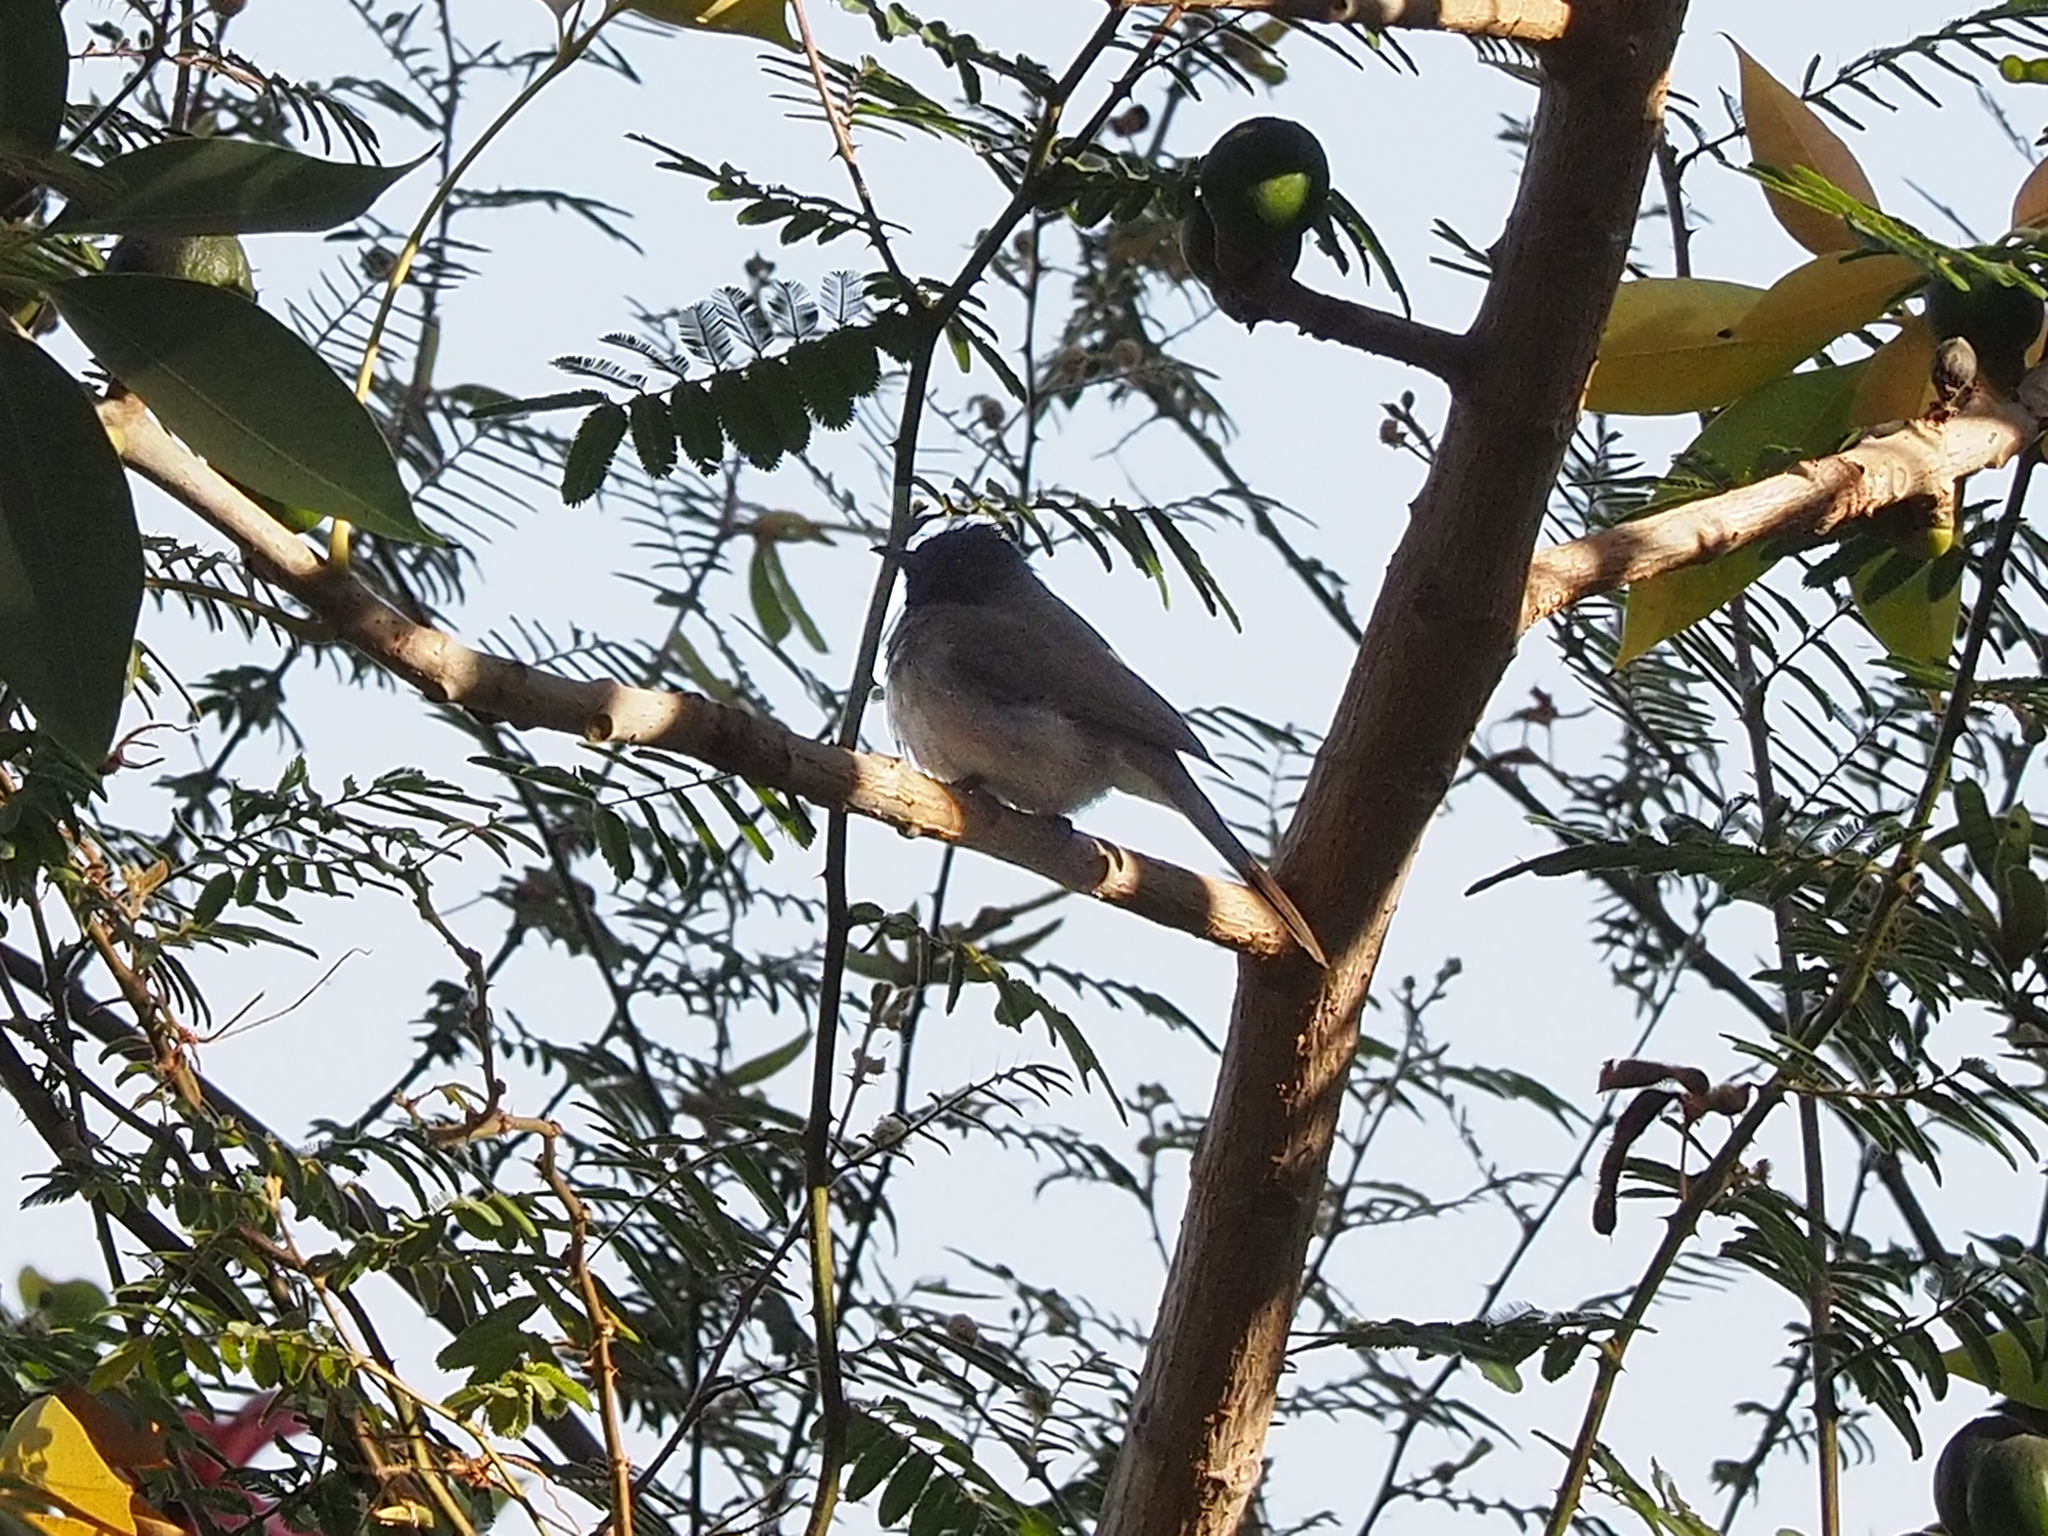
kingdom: Animalia
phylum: Chordata
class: Aves
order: Passeriformes
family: Pycnonotidae
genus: Pycnonotus
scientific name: Pycnonotus barbatus
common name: Common bulbul
